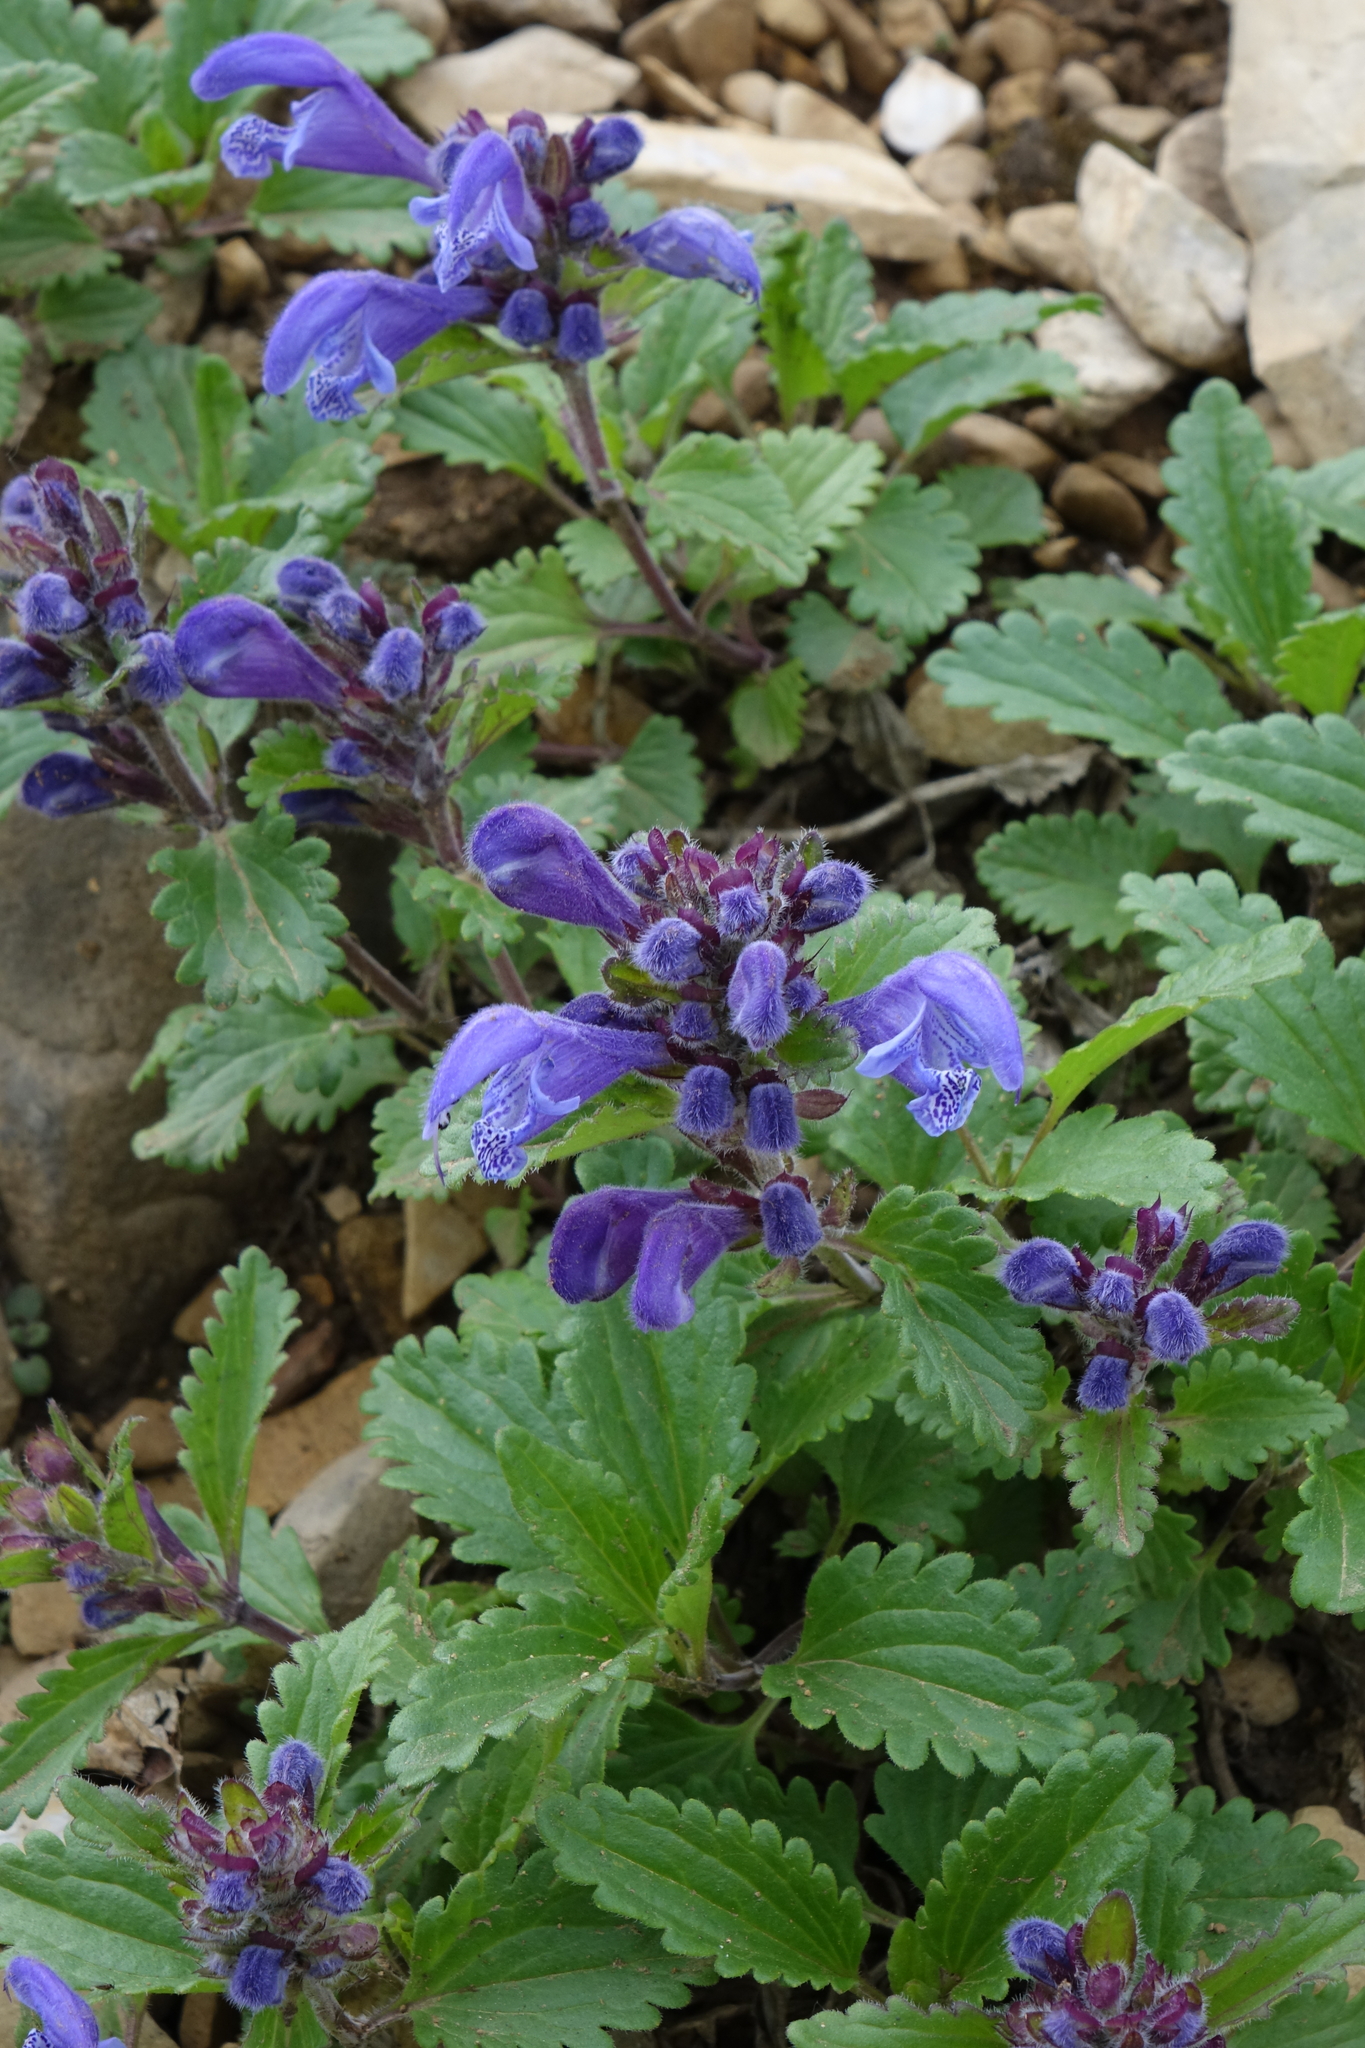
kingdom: Plantae
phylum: Tracheophyta
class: Magnoliopsida
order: Lamiales
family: Lamiaceae
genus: Dracocephalum
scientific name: Dracocephalum stellerianum
